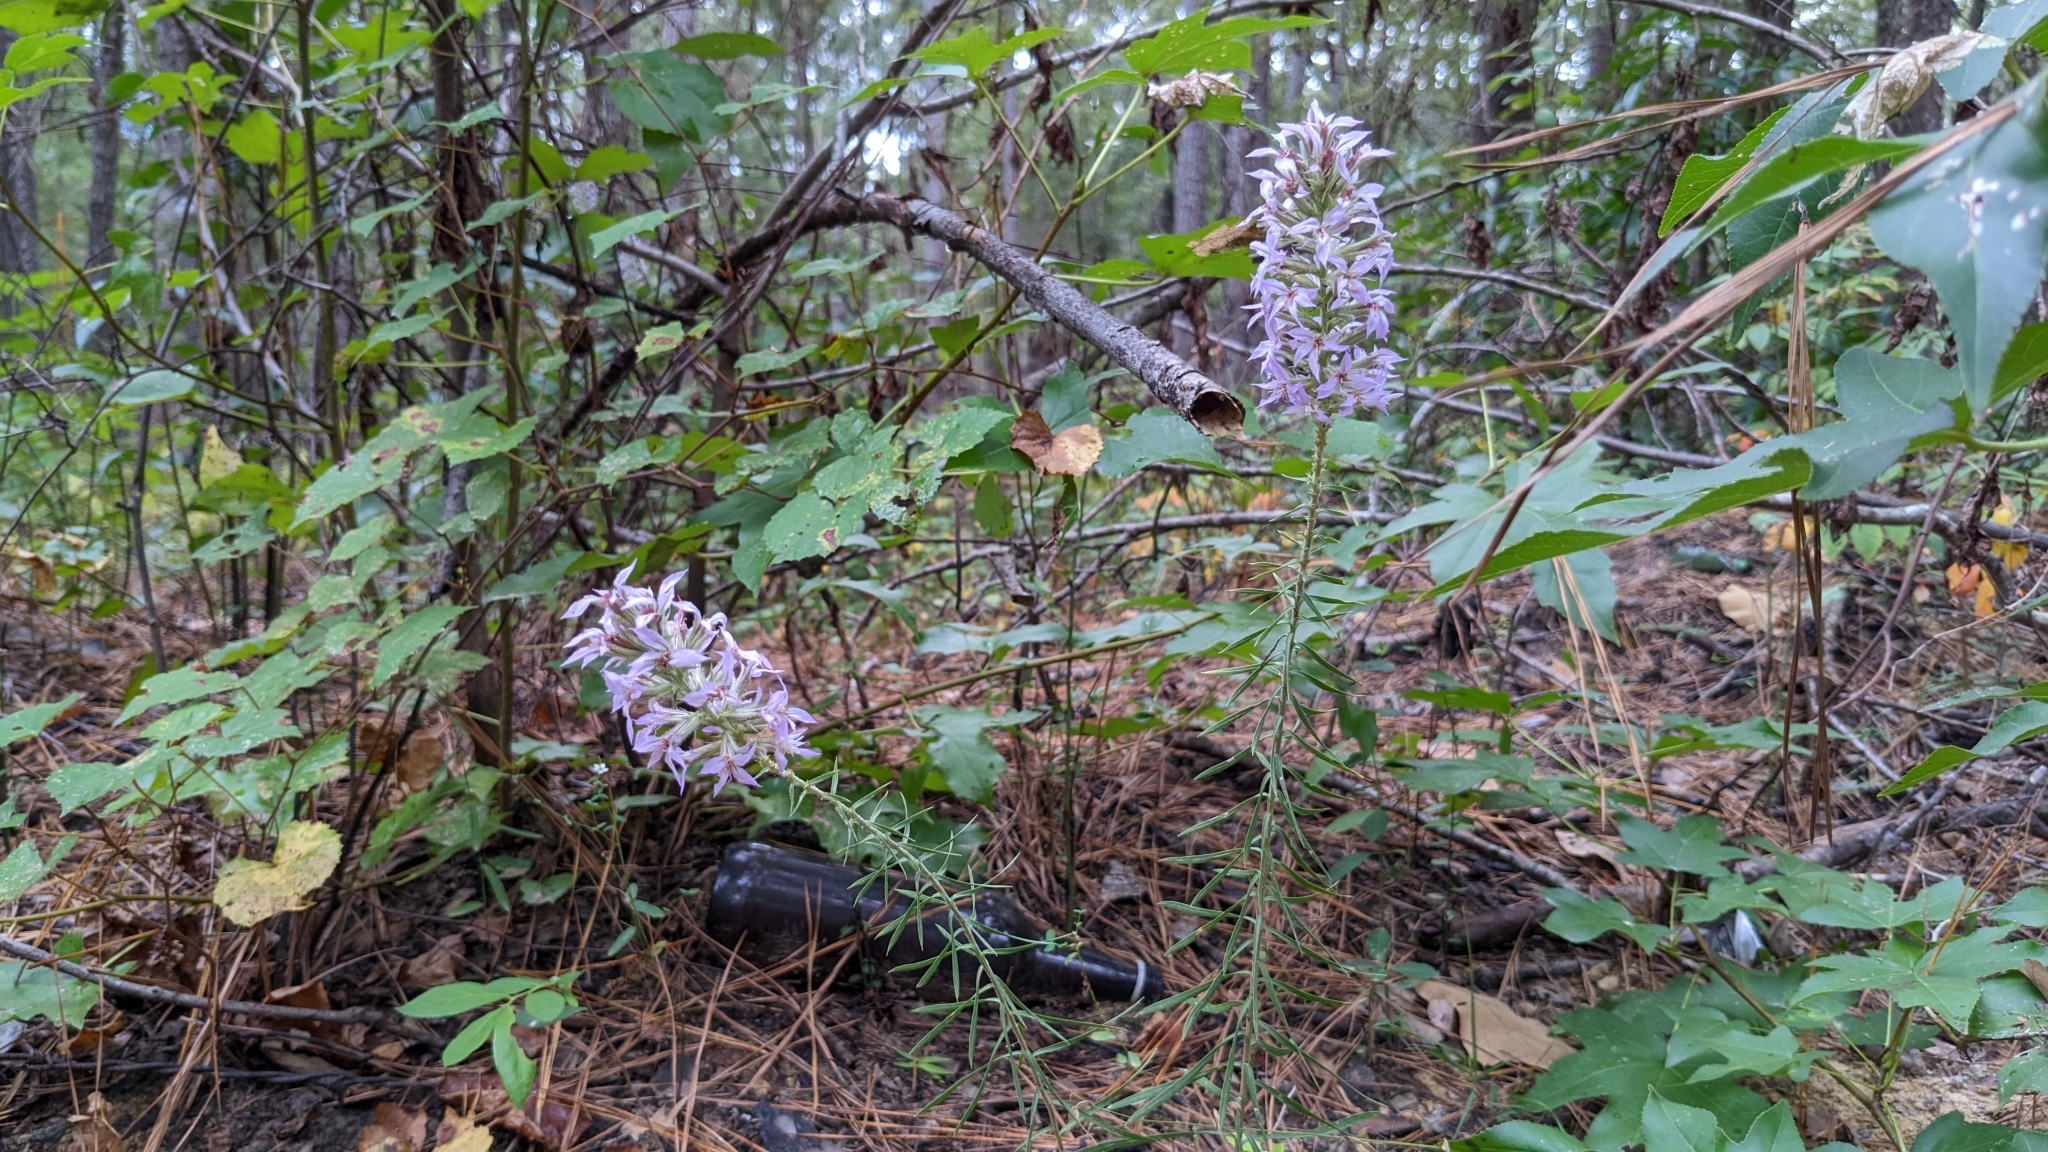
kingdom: Plantae
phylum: Tracheophyta
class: Magnoliopsida
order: Asterales
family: Asteraceae
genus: Liatris
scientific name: Liatris hesperelegans
